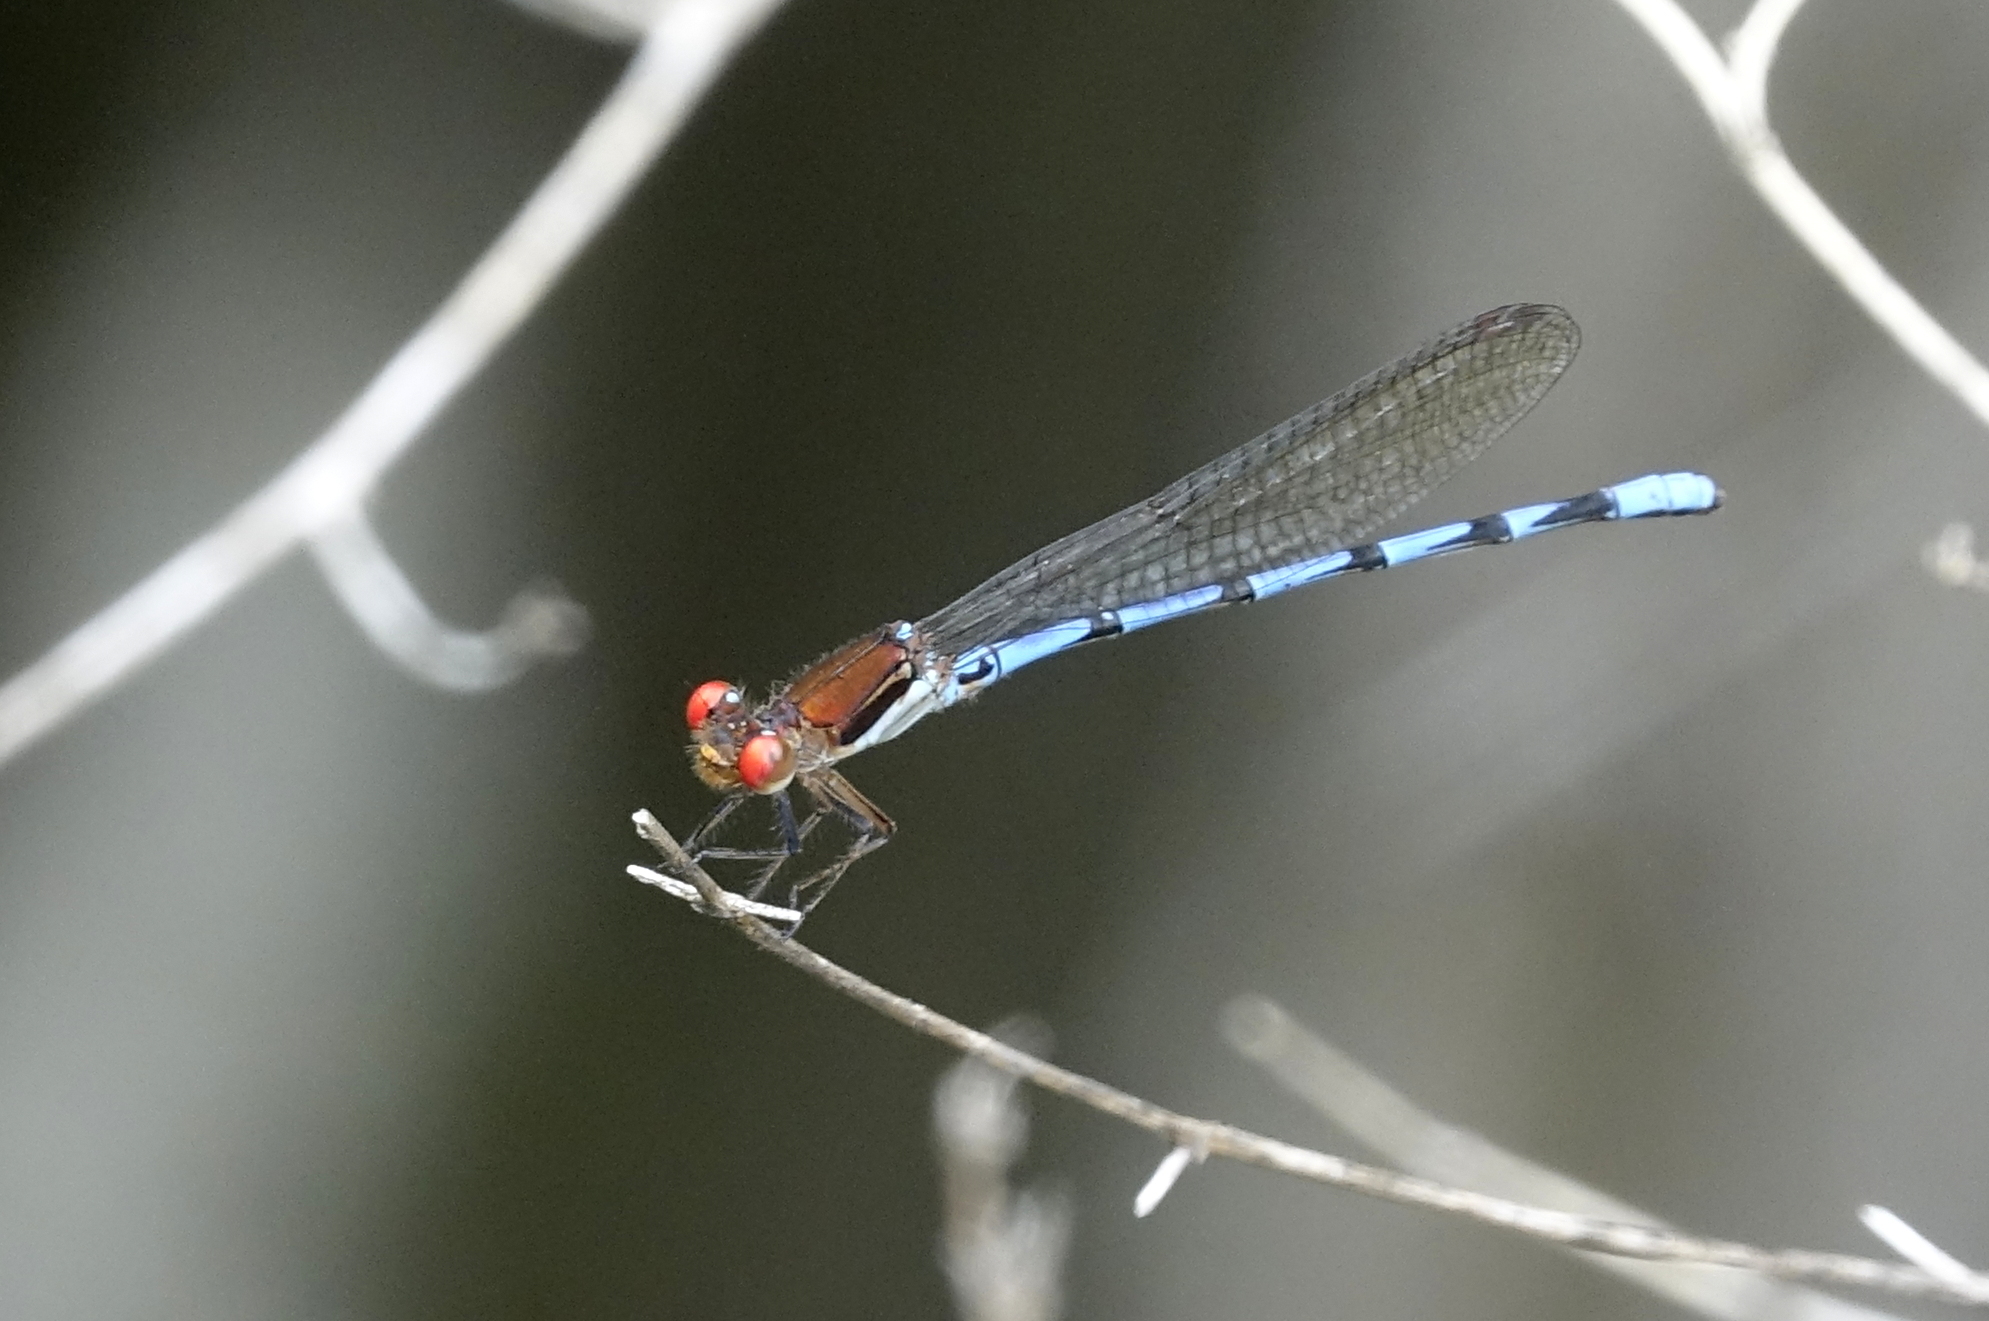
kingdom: Animalia
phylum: Arthropoda
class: Insecta
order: Odonata
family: Coenagrionidae
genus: Argia
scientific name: Argia joergenseni
